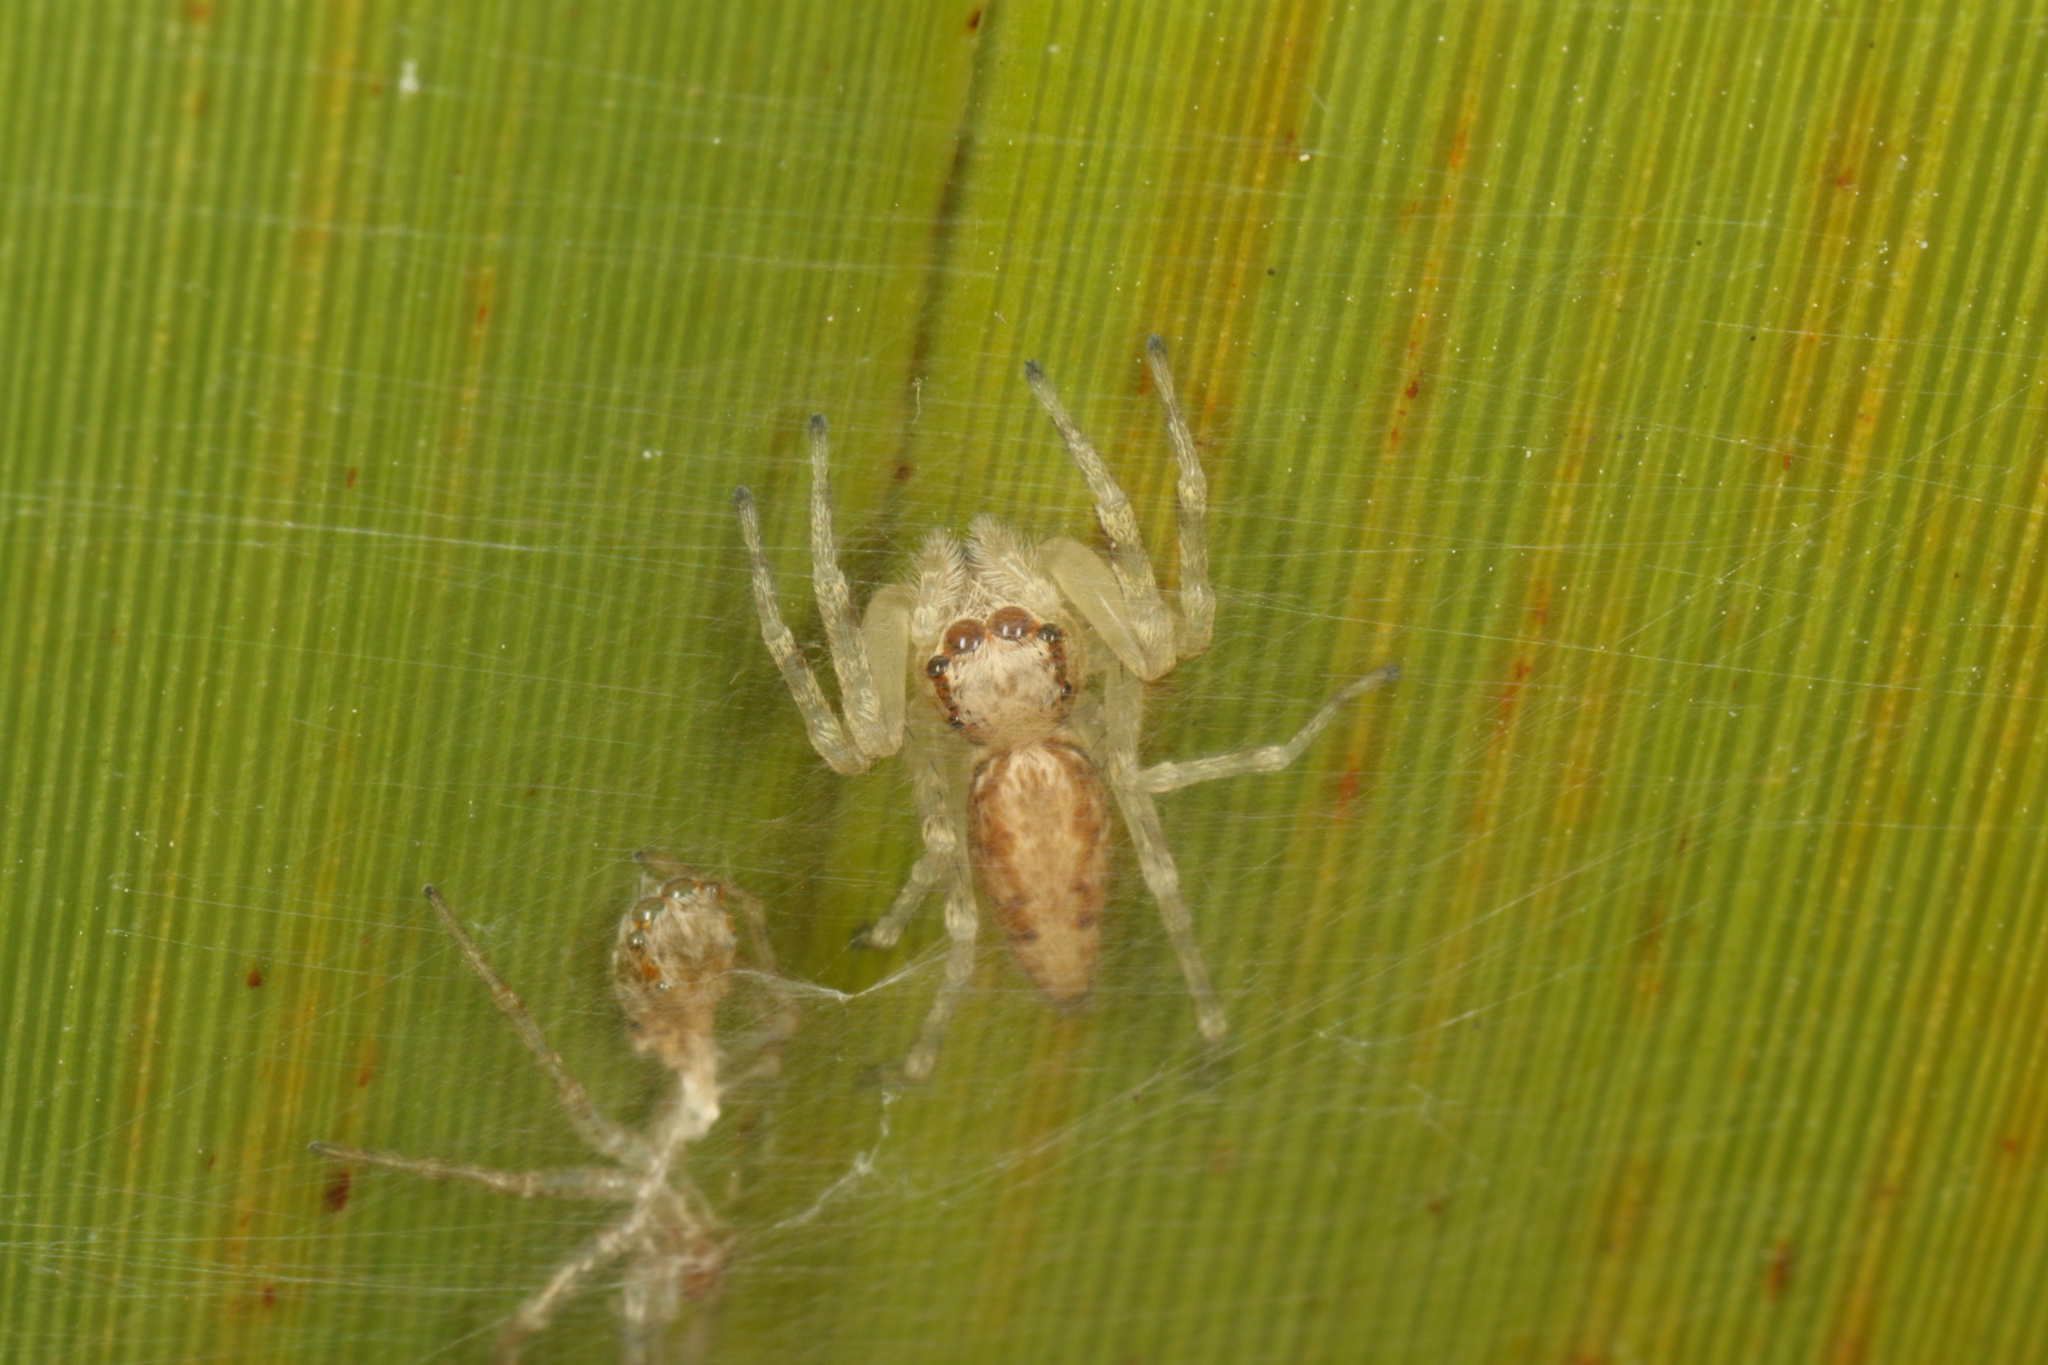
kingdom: Animalia
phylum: Arthropoda
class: Arachnida
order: Araneae
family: Salticidae
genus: Helpis
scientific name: Helpis minitabunda
